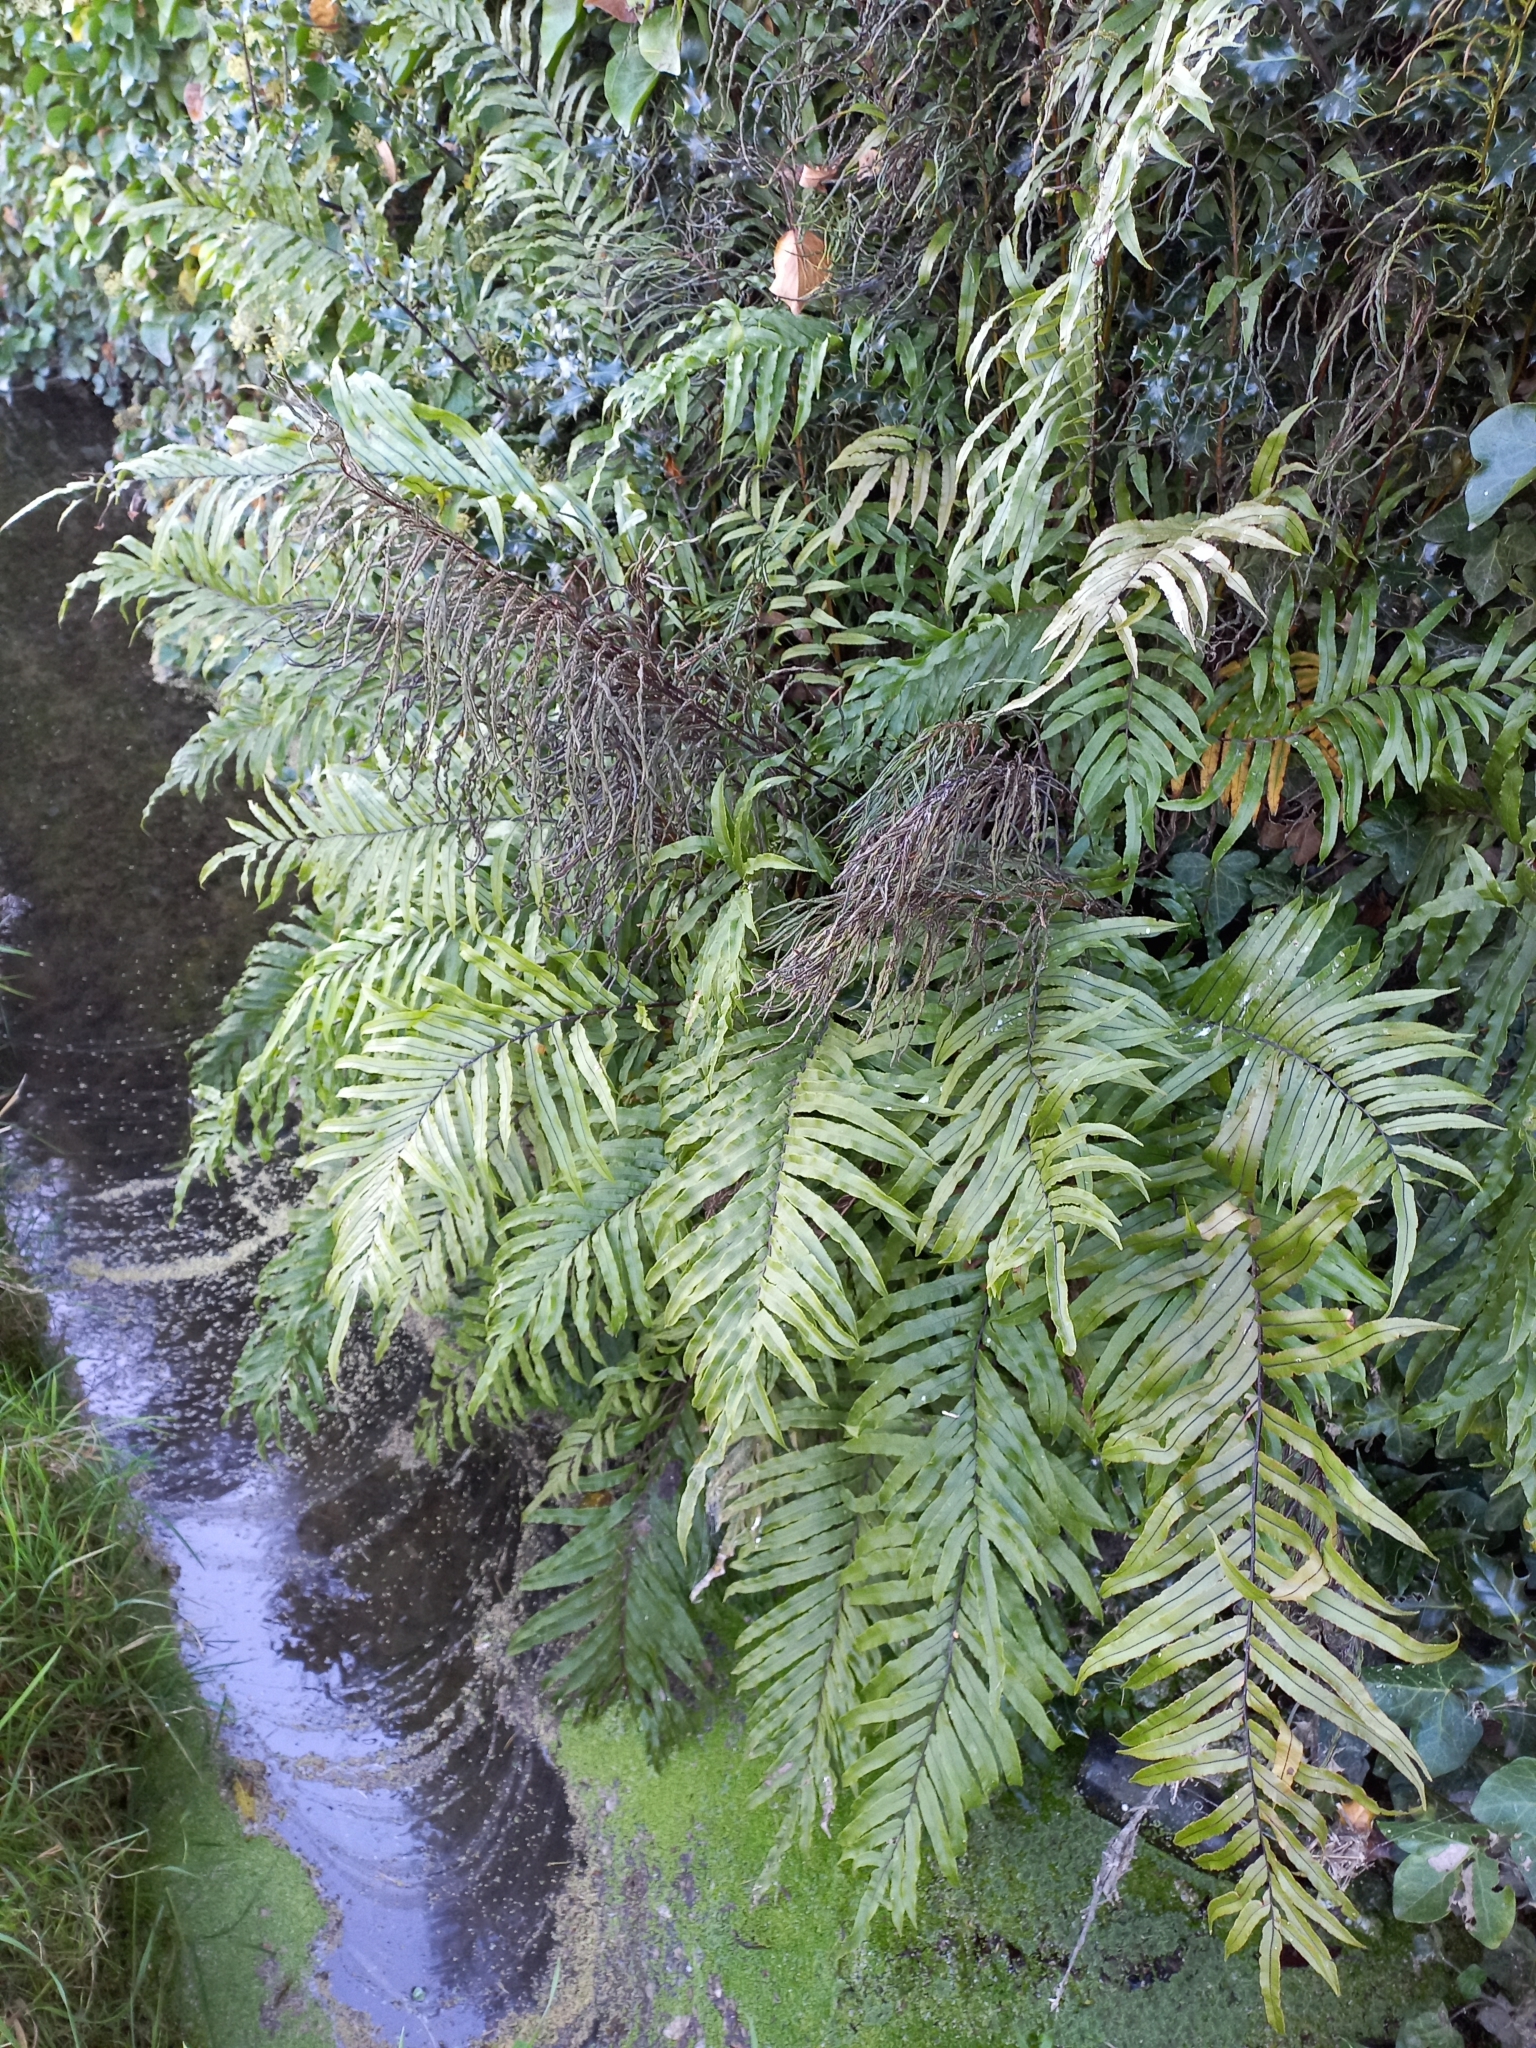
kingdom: Plantae
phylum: Tracheophyta
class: Polypodiopsida
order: Polypodiales
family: Blechnaceae
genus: Parablechnum
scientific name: Parablechnum minus
